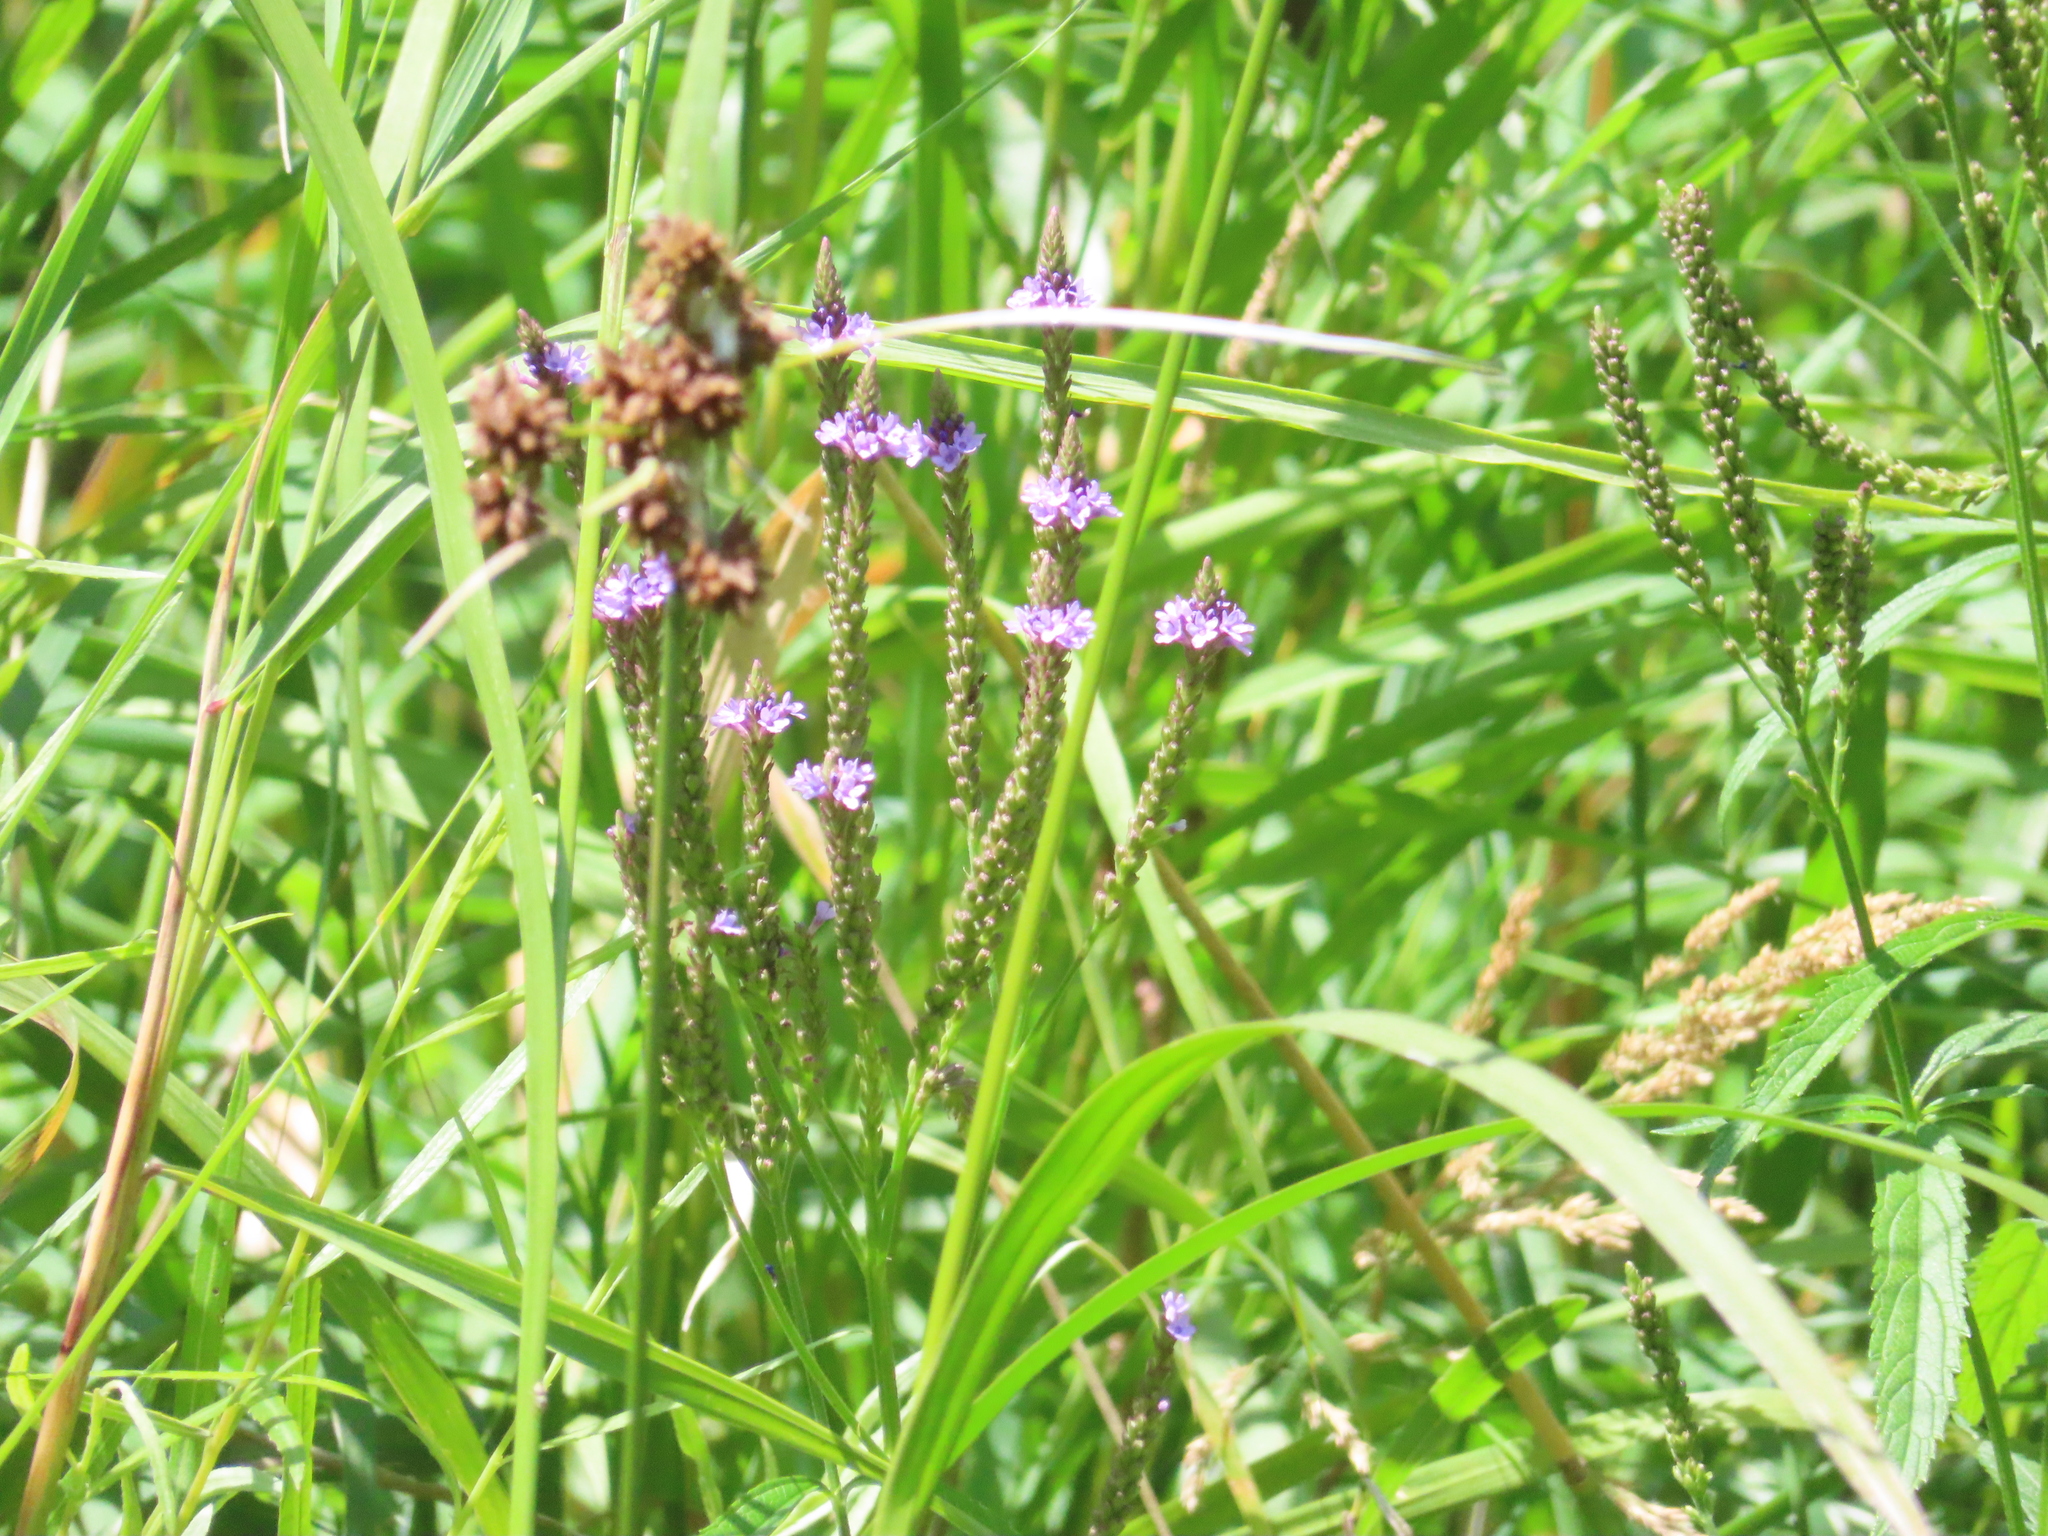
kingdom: Plantae
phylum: Tracheophyta
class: Magnoliopsida
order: Lamiales
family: Verbenaceae
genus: Verbena
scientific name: Verbena hastata
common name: American blue vervain
